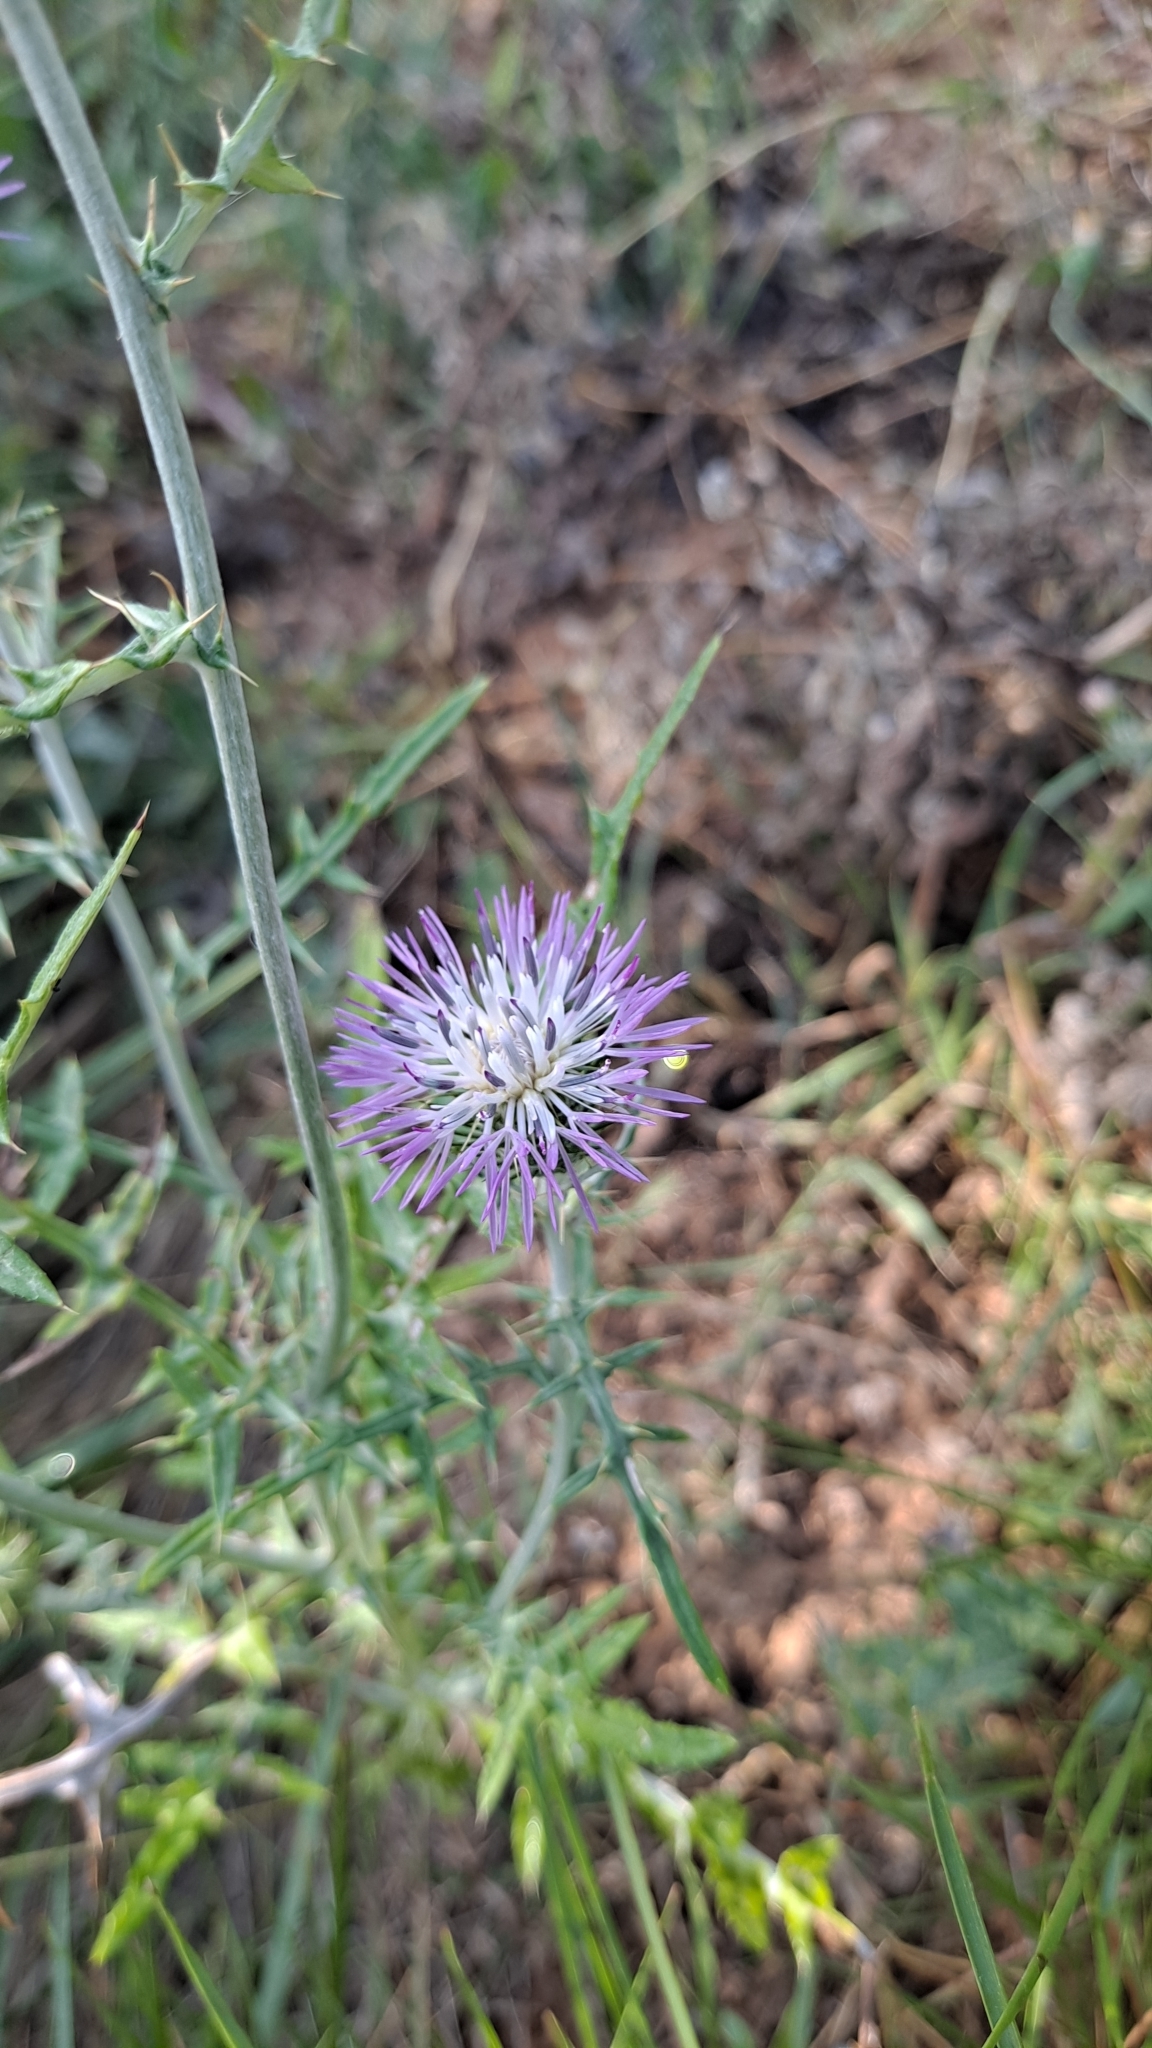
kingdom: Plantae
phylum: Tracheophyta
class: Magnoliopsida
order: Asterales
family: Asteraceae
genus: Galactites
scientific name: Galactites tomentosa
